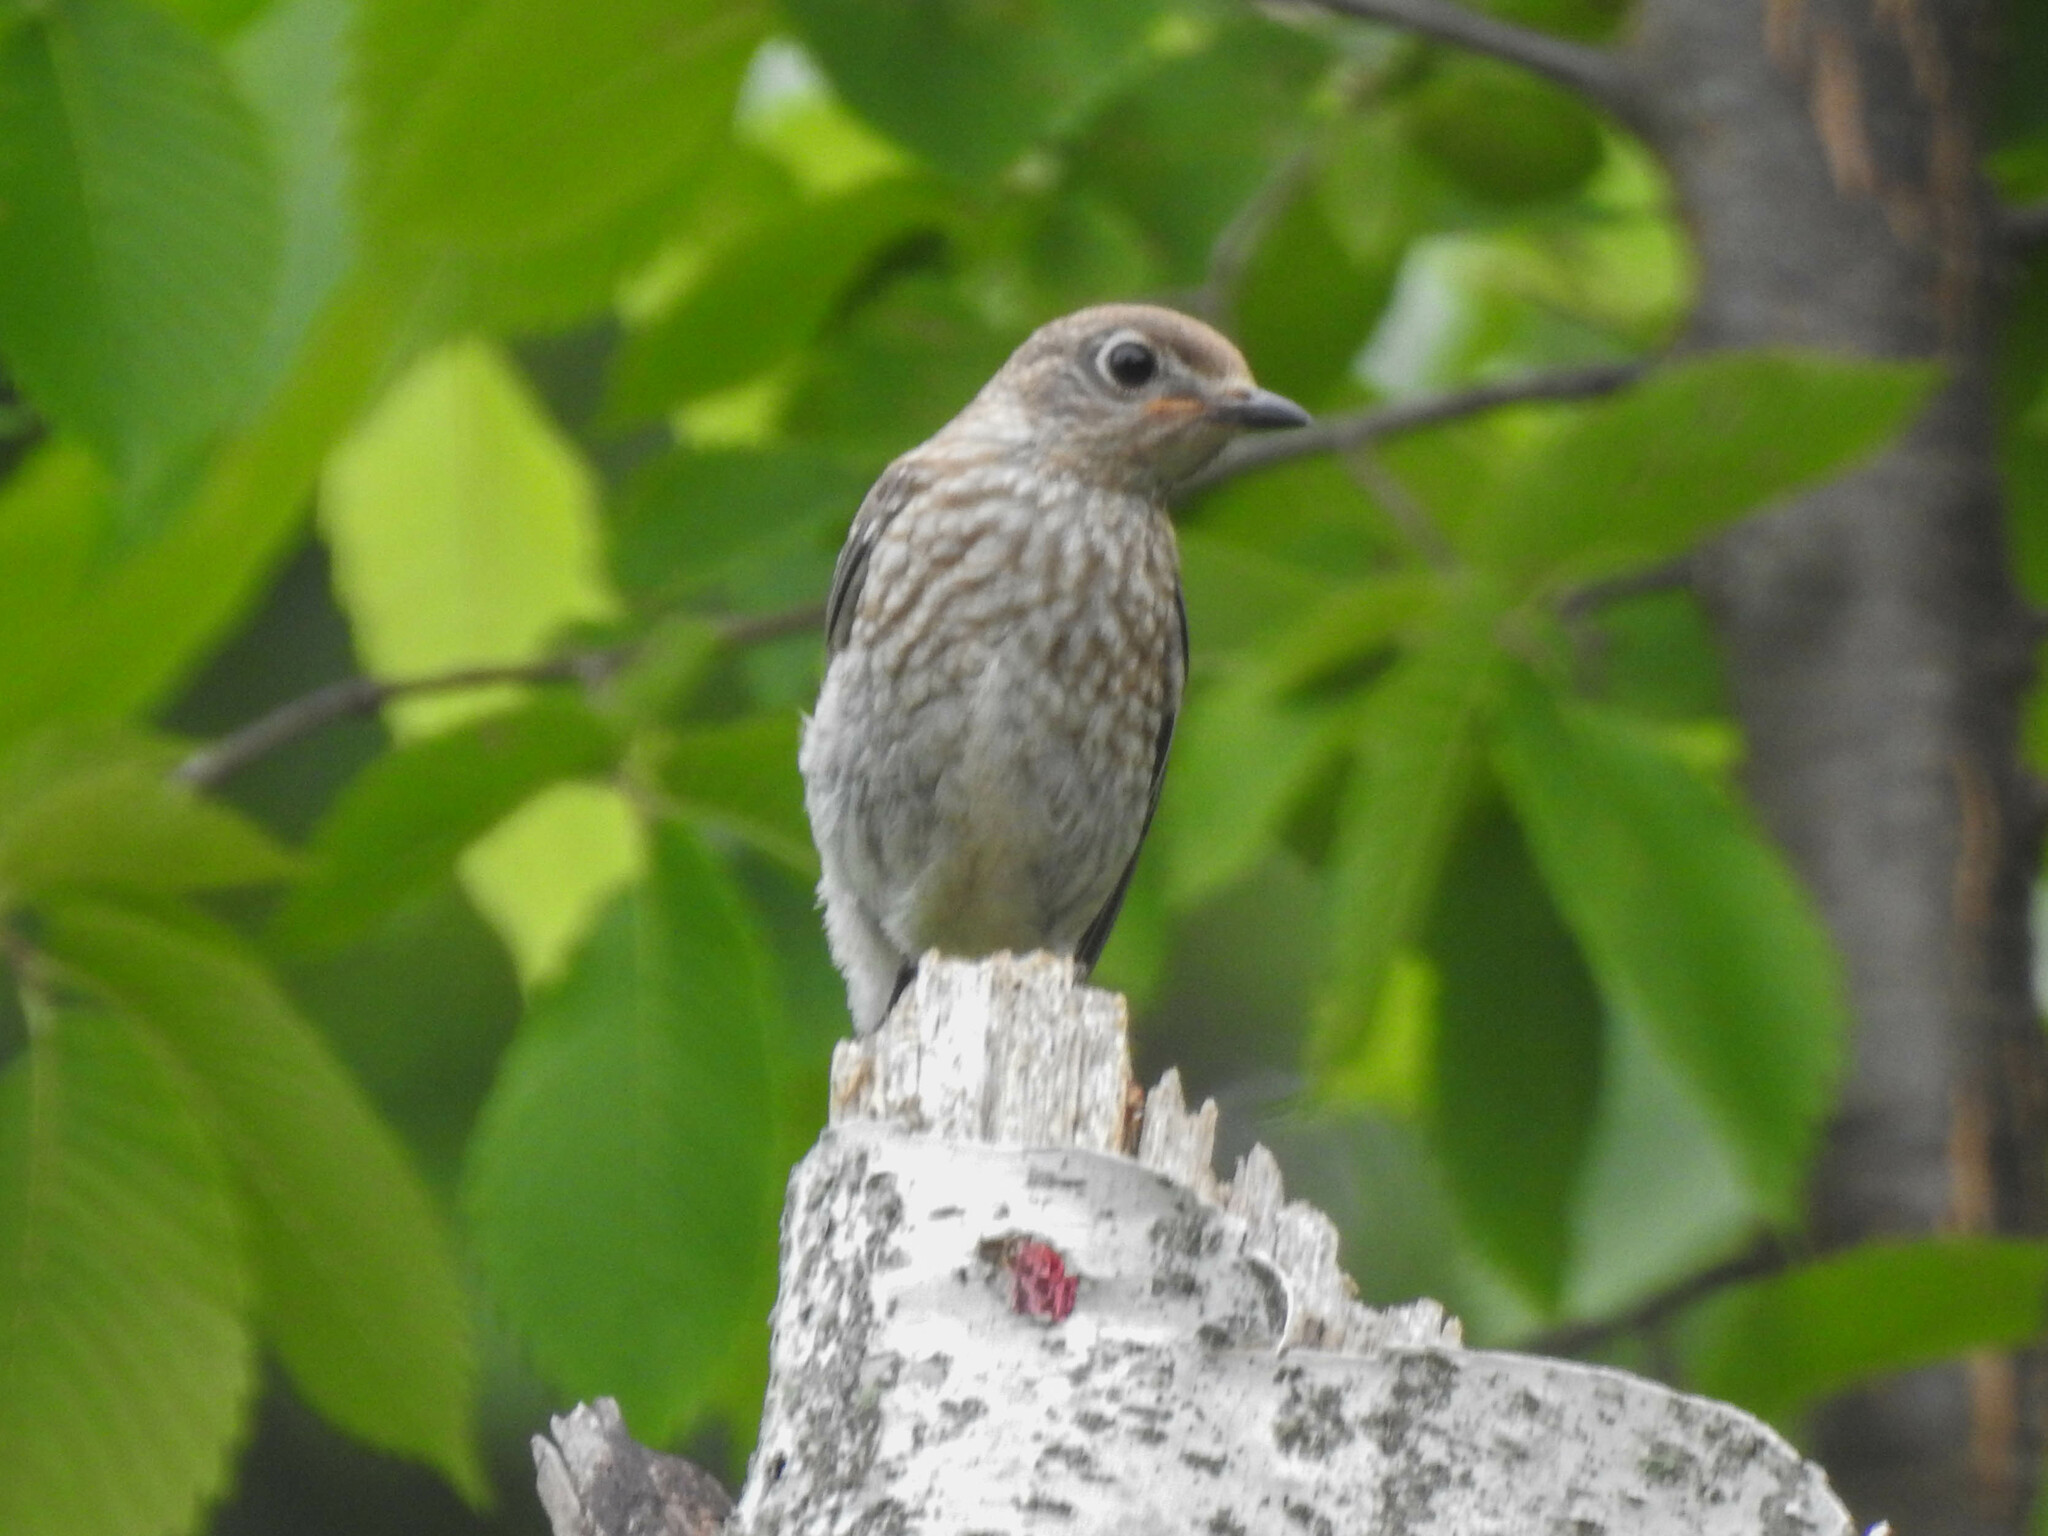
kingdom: Animalia
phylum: Chordata
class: Aves
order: Passeriformes
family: Turdidae
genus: Sialia
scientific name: Sialia sialis
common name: Eastern bluebird
